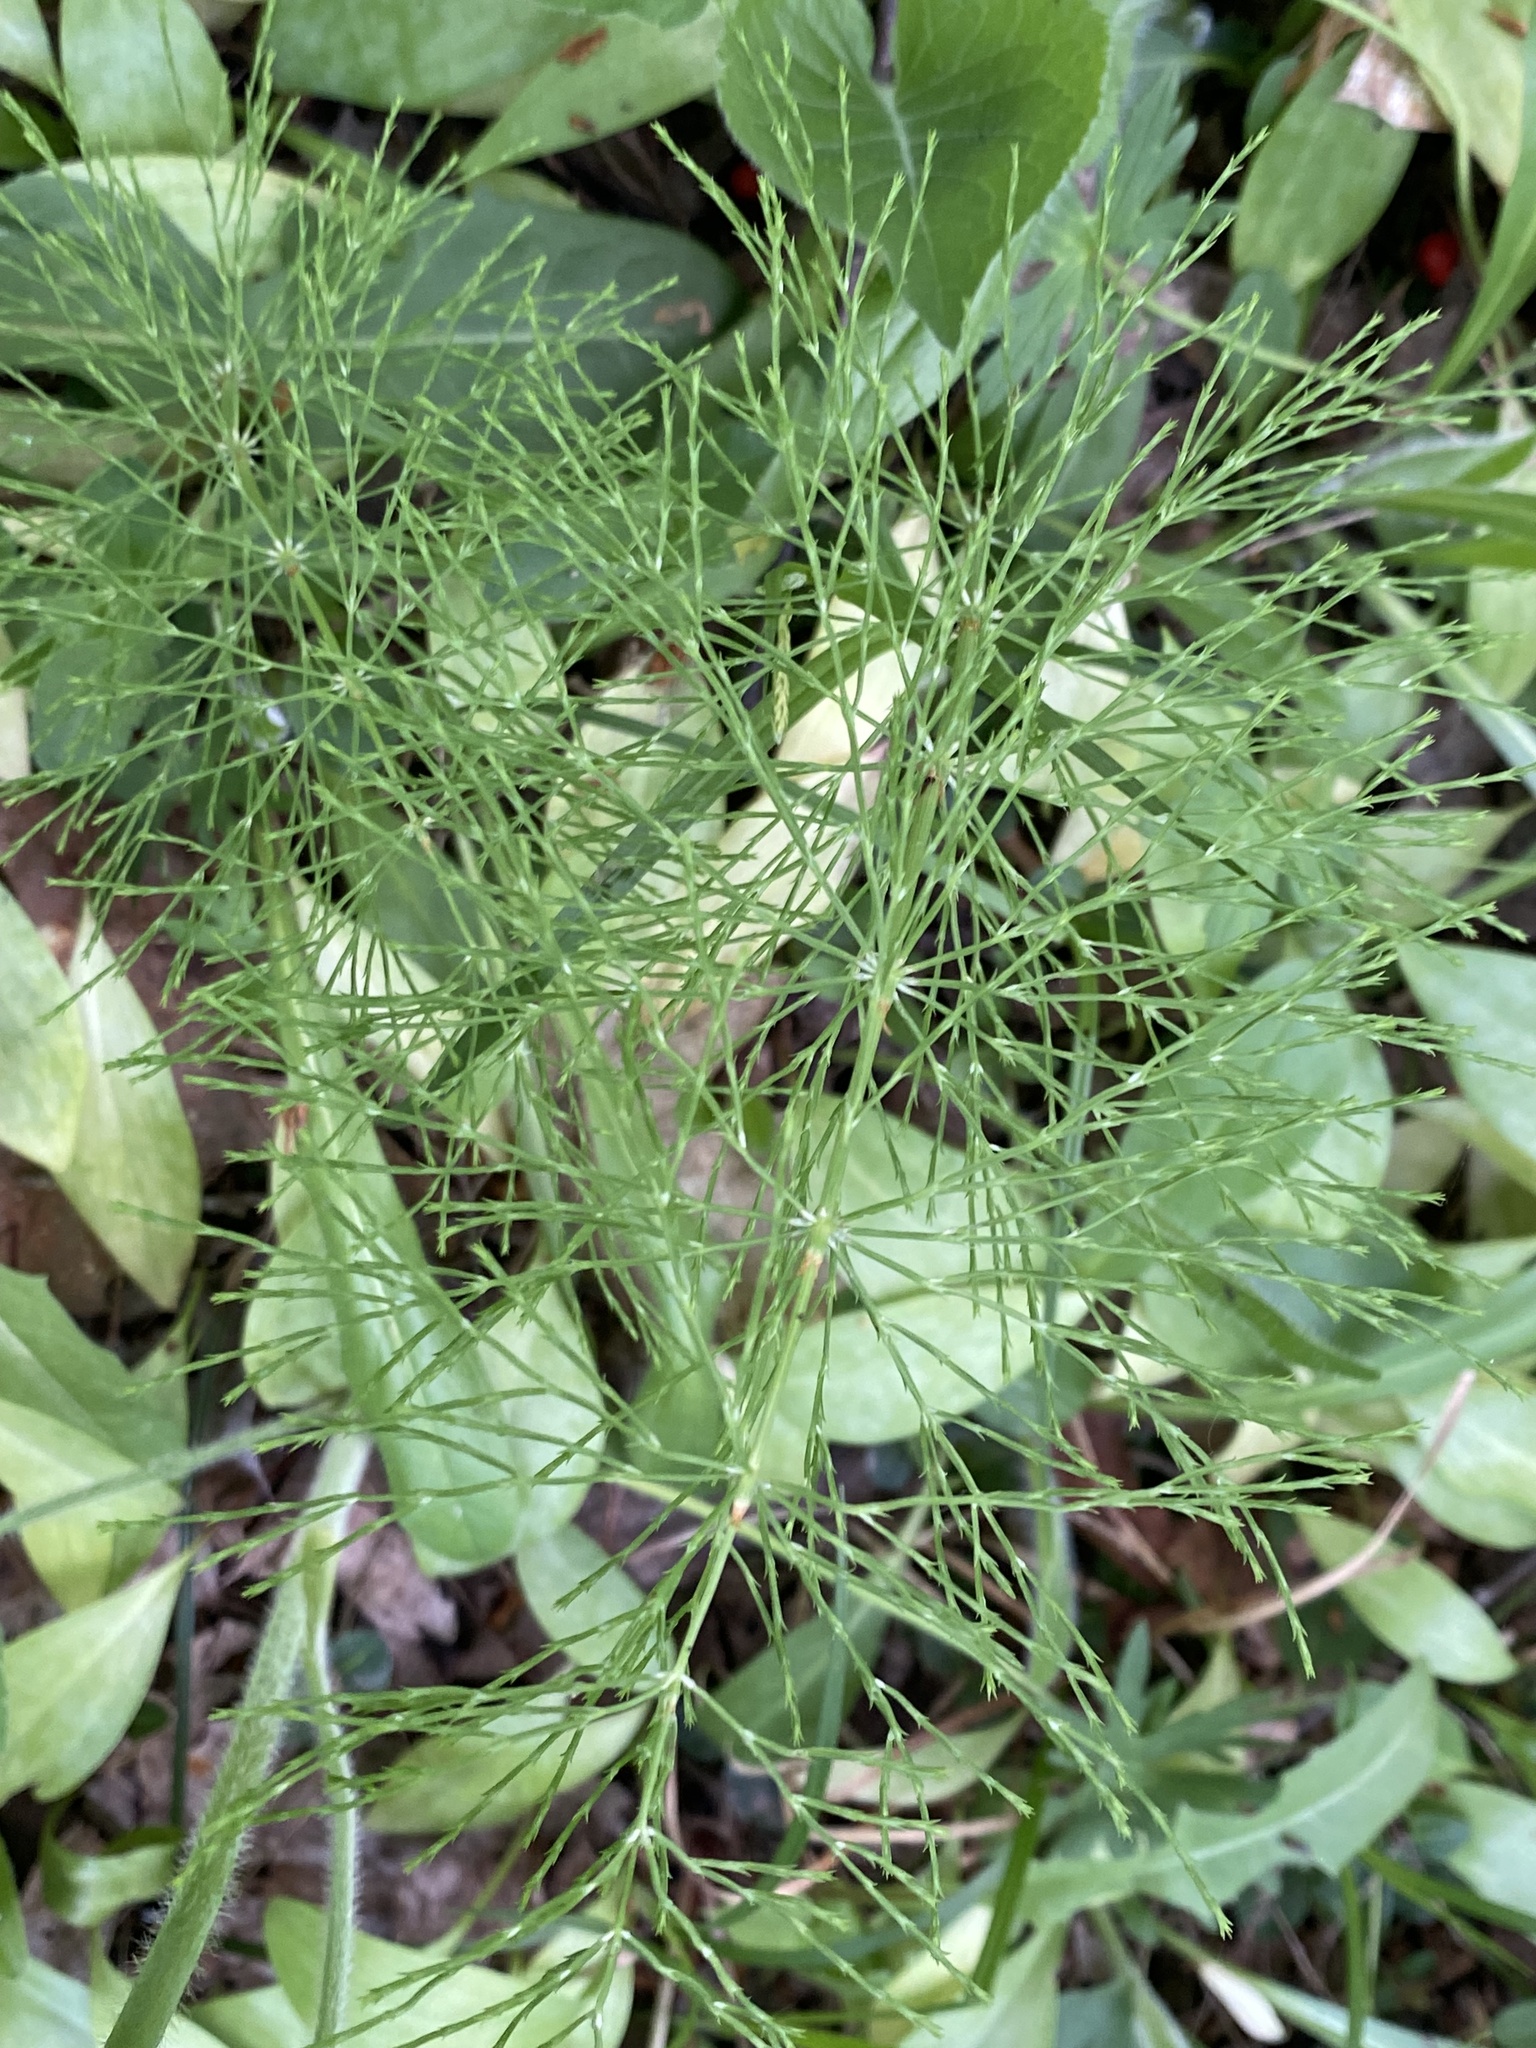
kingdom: Plantae
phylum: Tracheophyta
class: Polypodiopsida
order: Equisetales
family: Equisetaceae
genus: Equisetum
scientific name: Equisetum sylvaticum
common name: Wood horsetail
